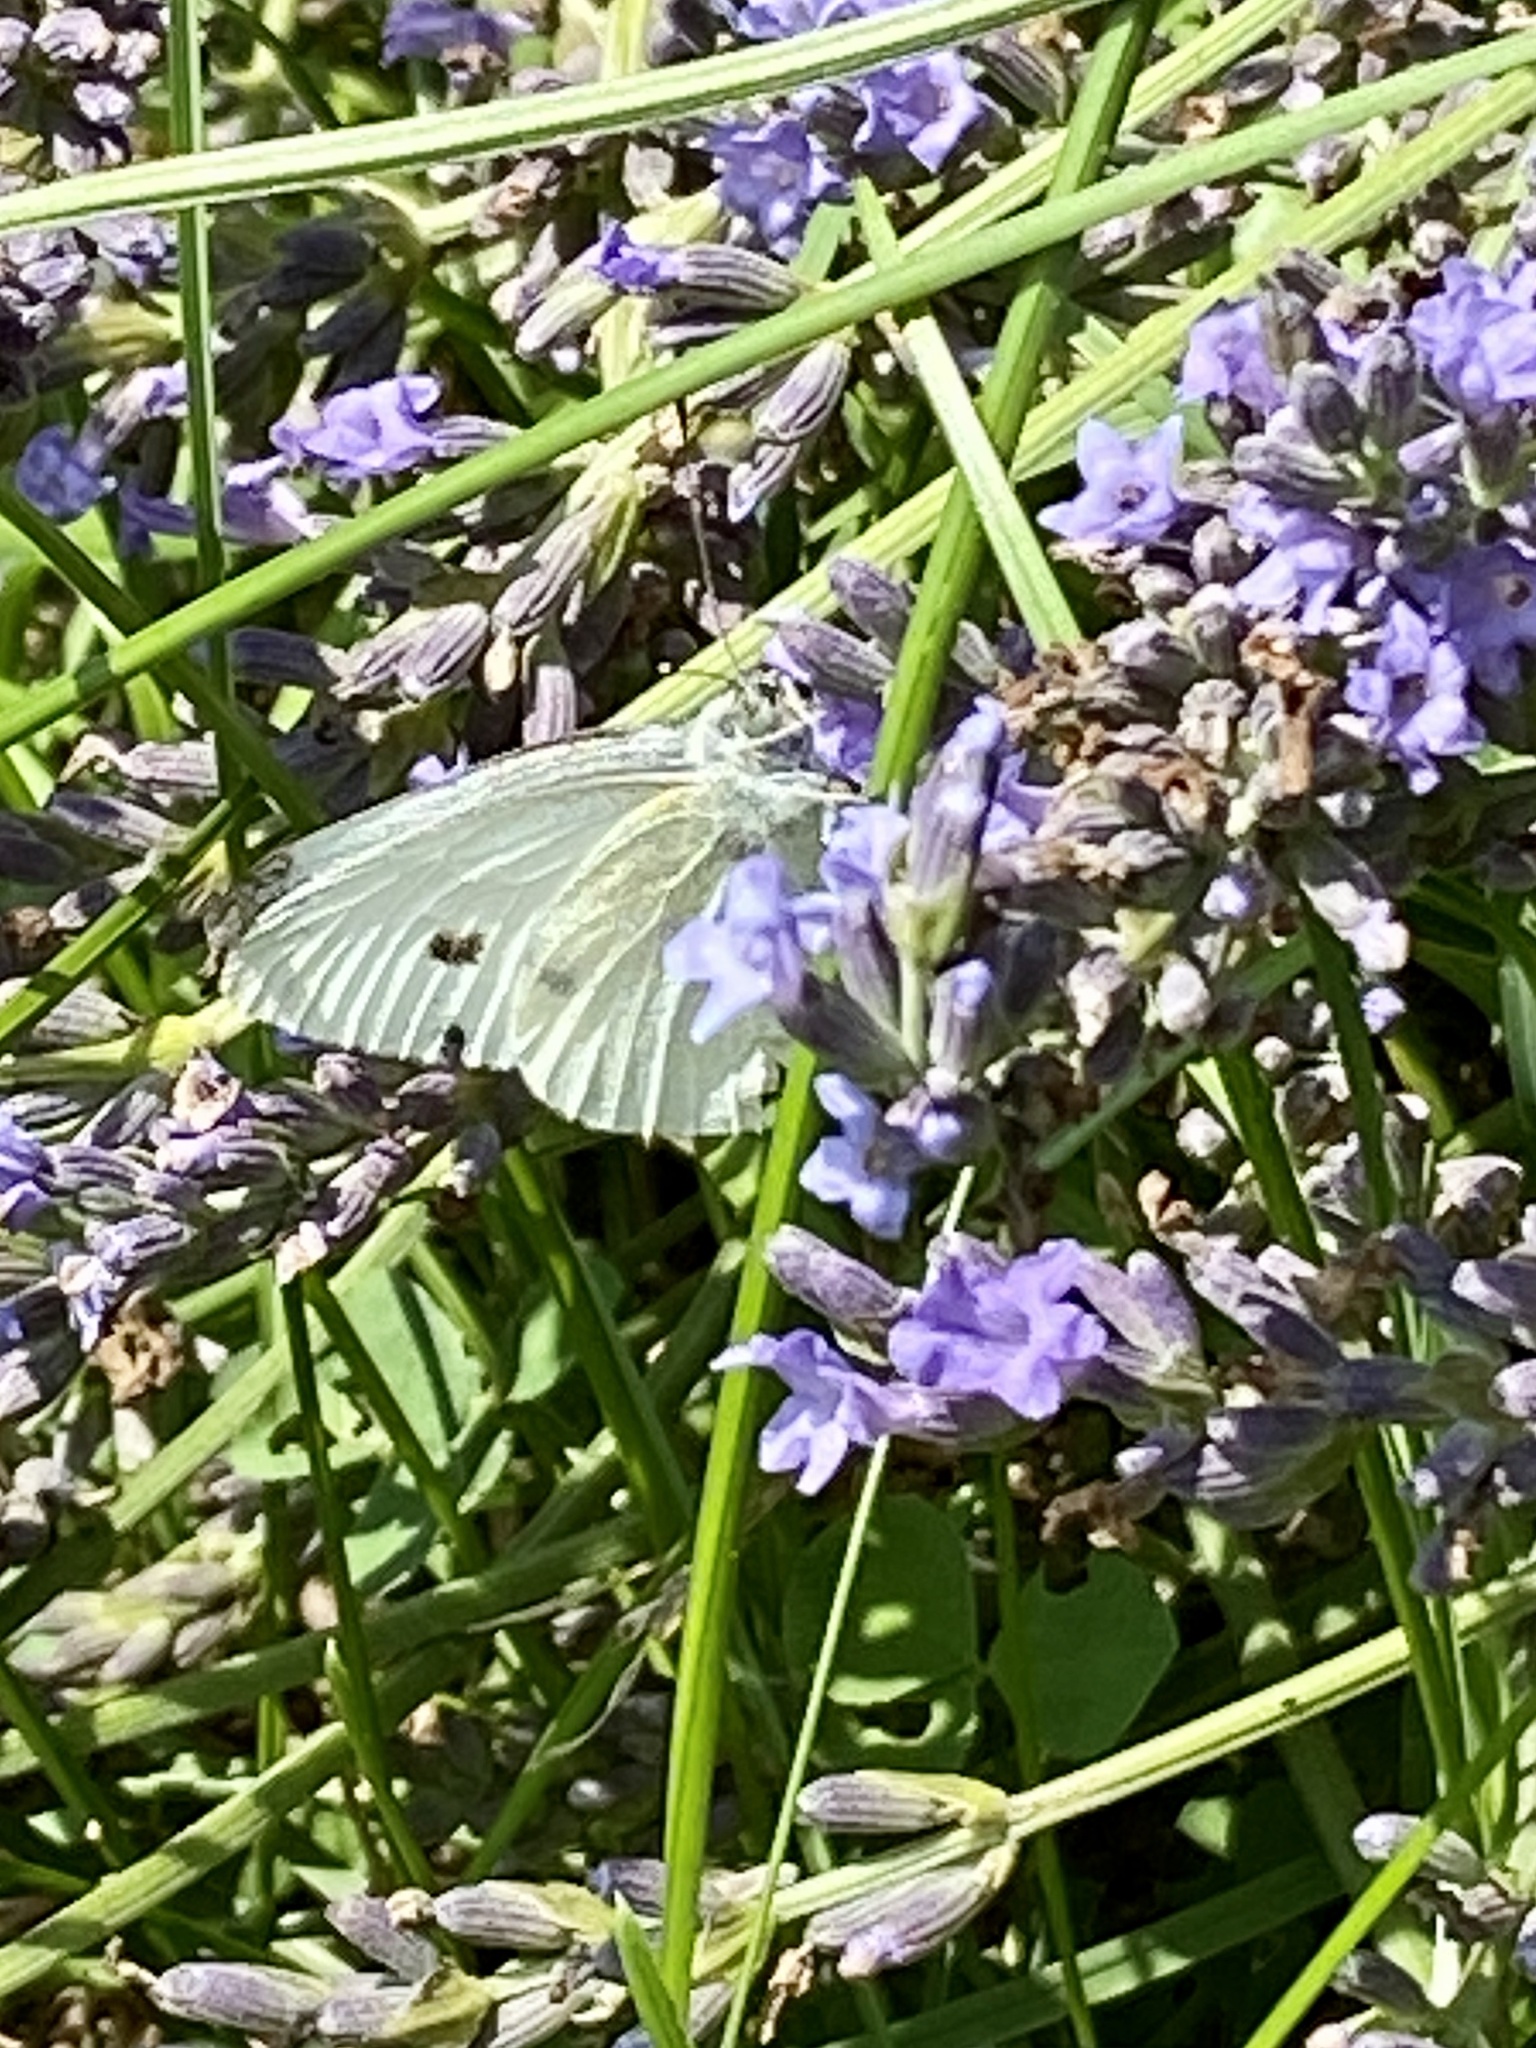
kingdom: Animalia
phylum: Arthropoda
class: Insecta
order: Lepidoptera
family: Pieridae
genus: Pieris
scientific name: Pieris rapae
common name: Small white
